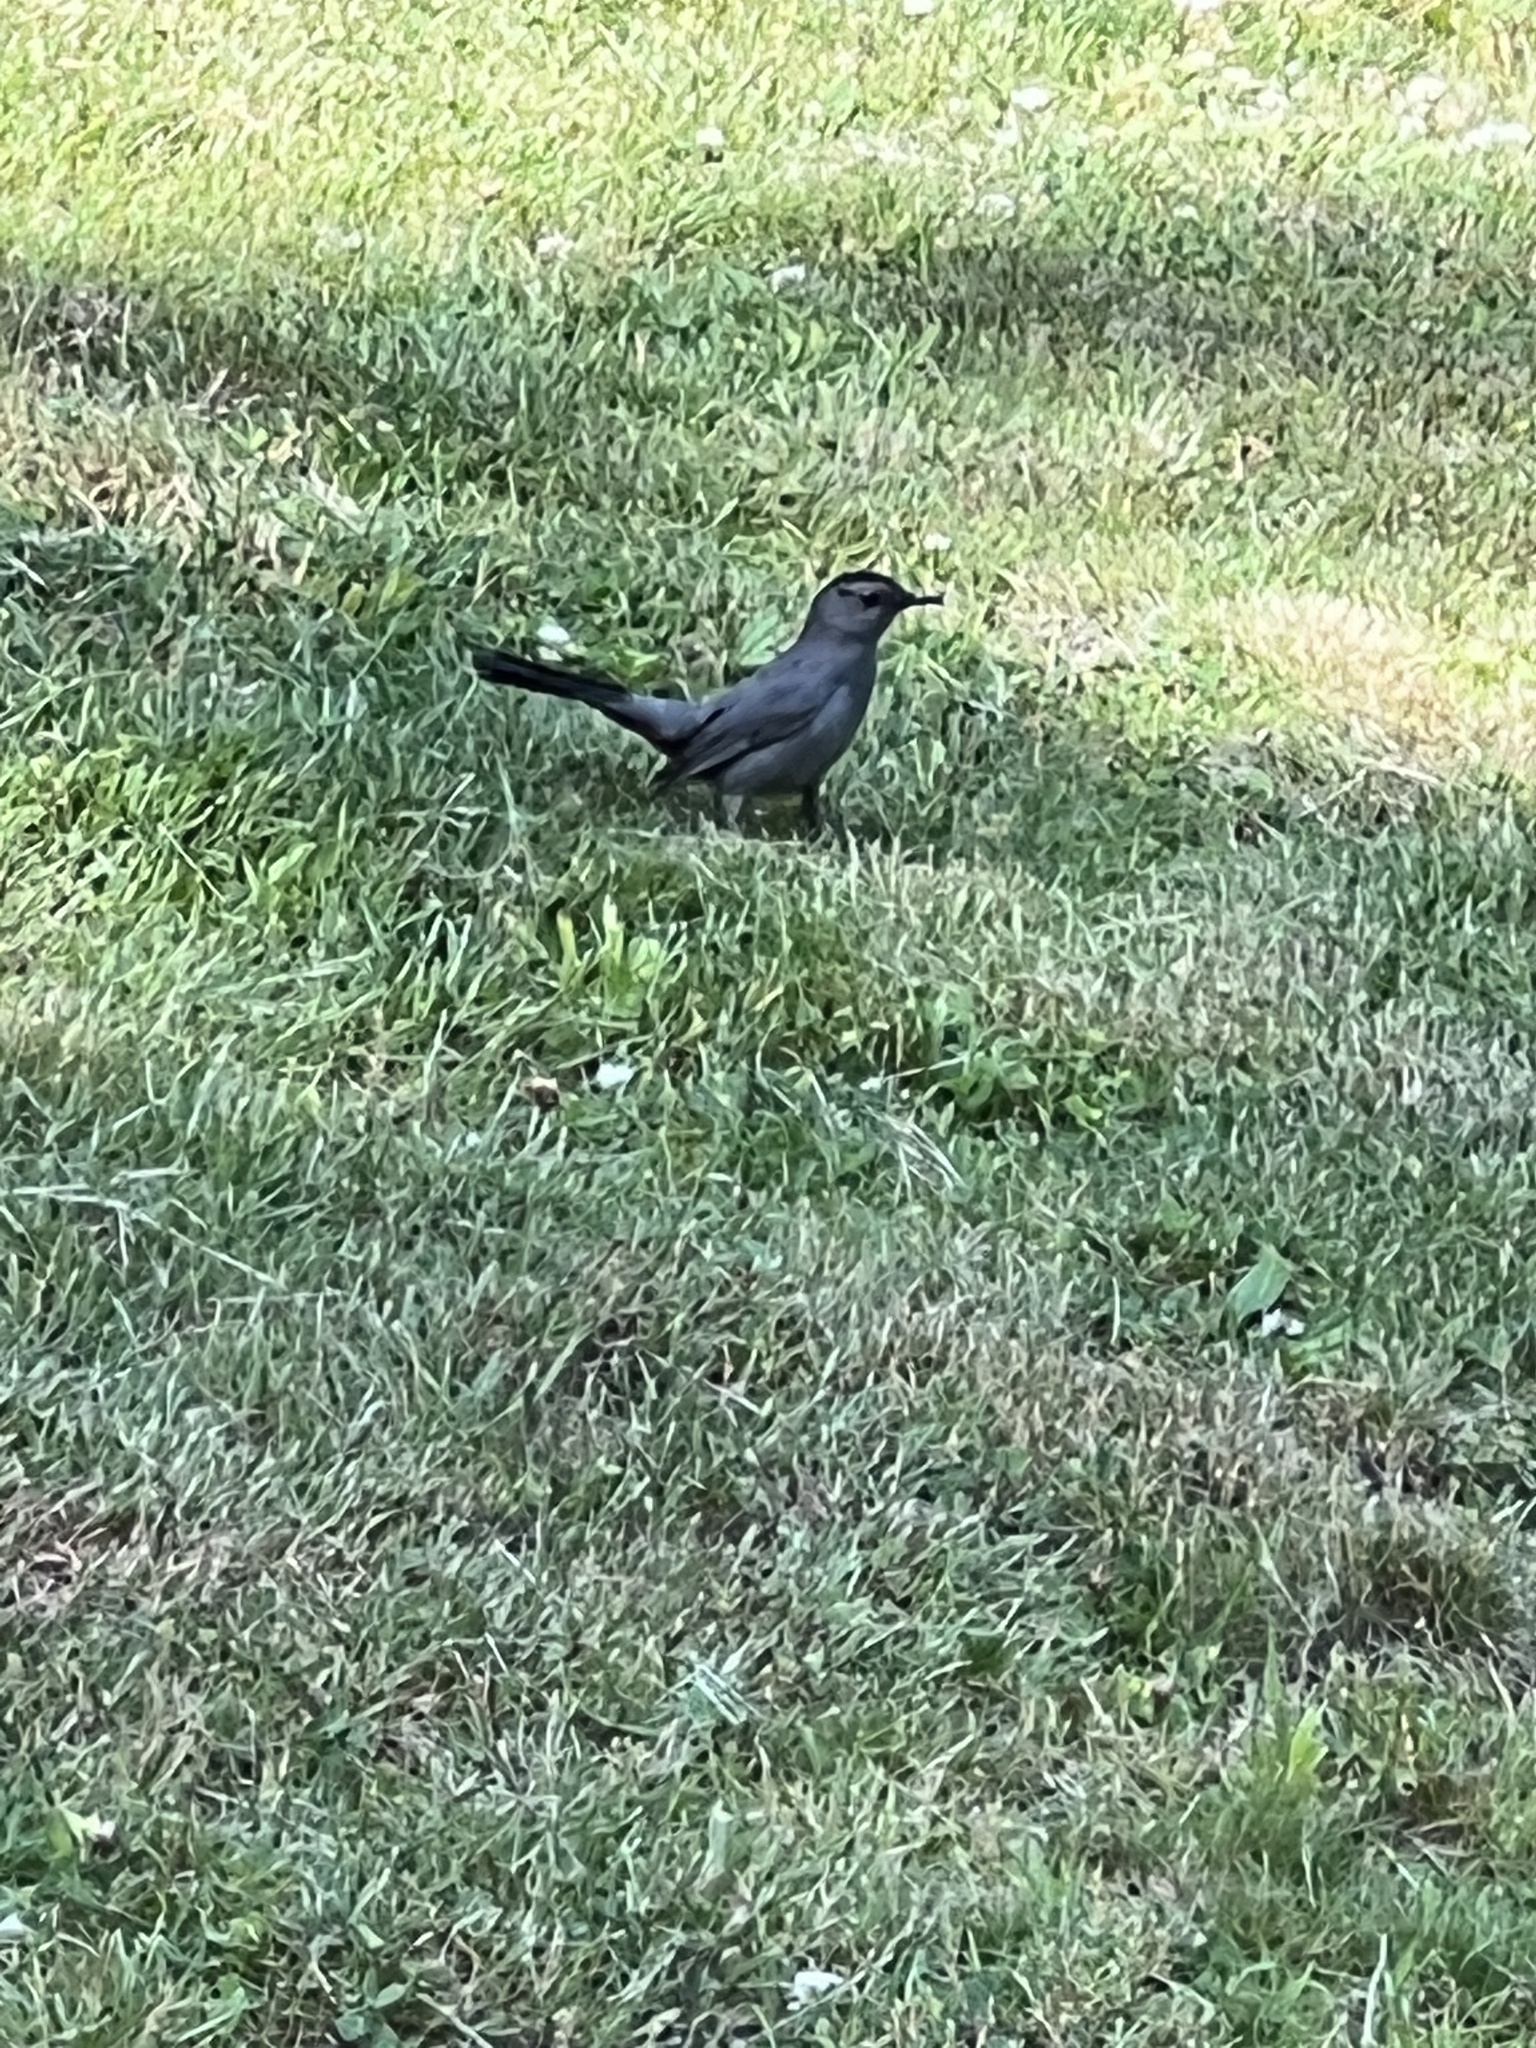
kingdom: Animalia
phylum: Chordata
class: Aves
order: Passeriformes
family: Mimidae
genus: Dumetella
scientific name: Dumetella carolinensis
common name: Gray catbird
